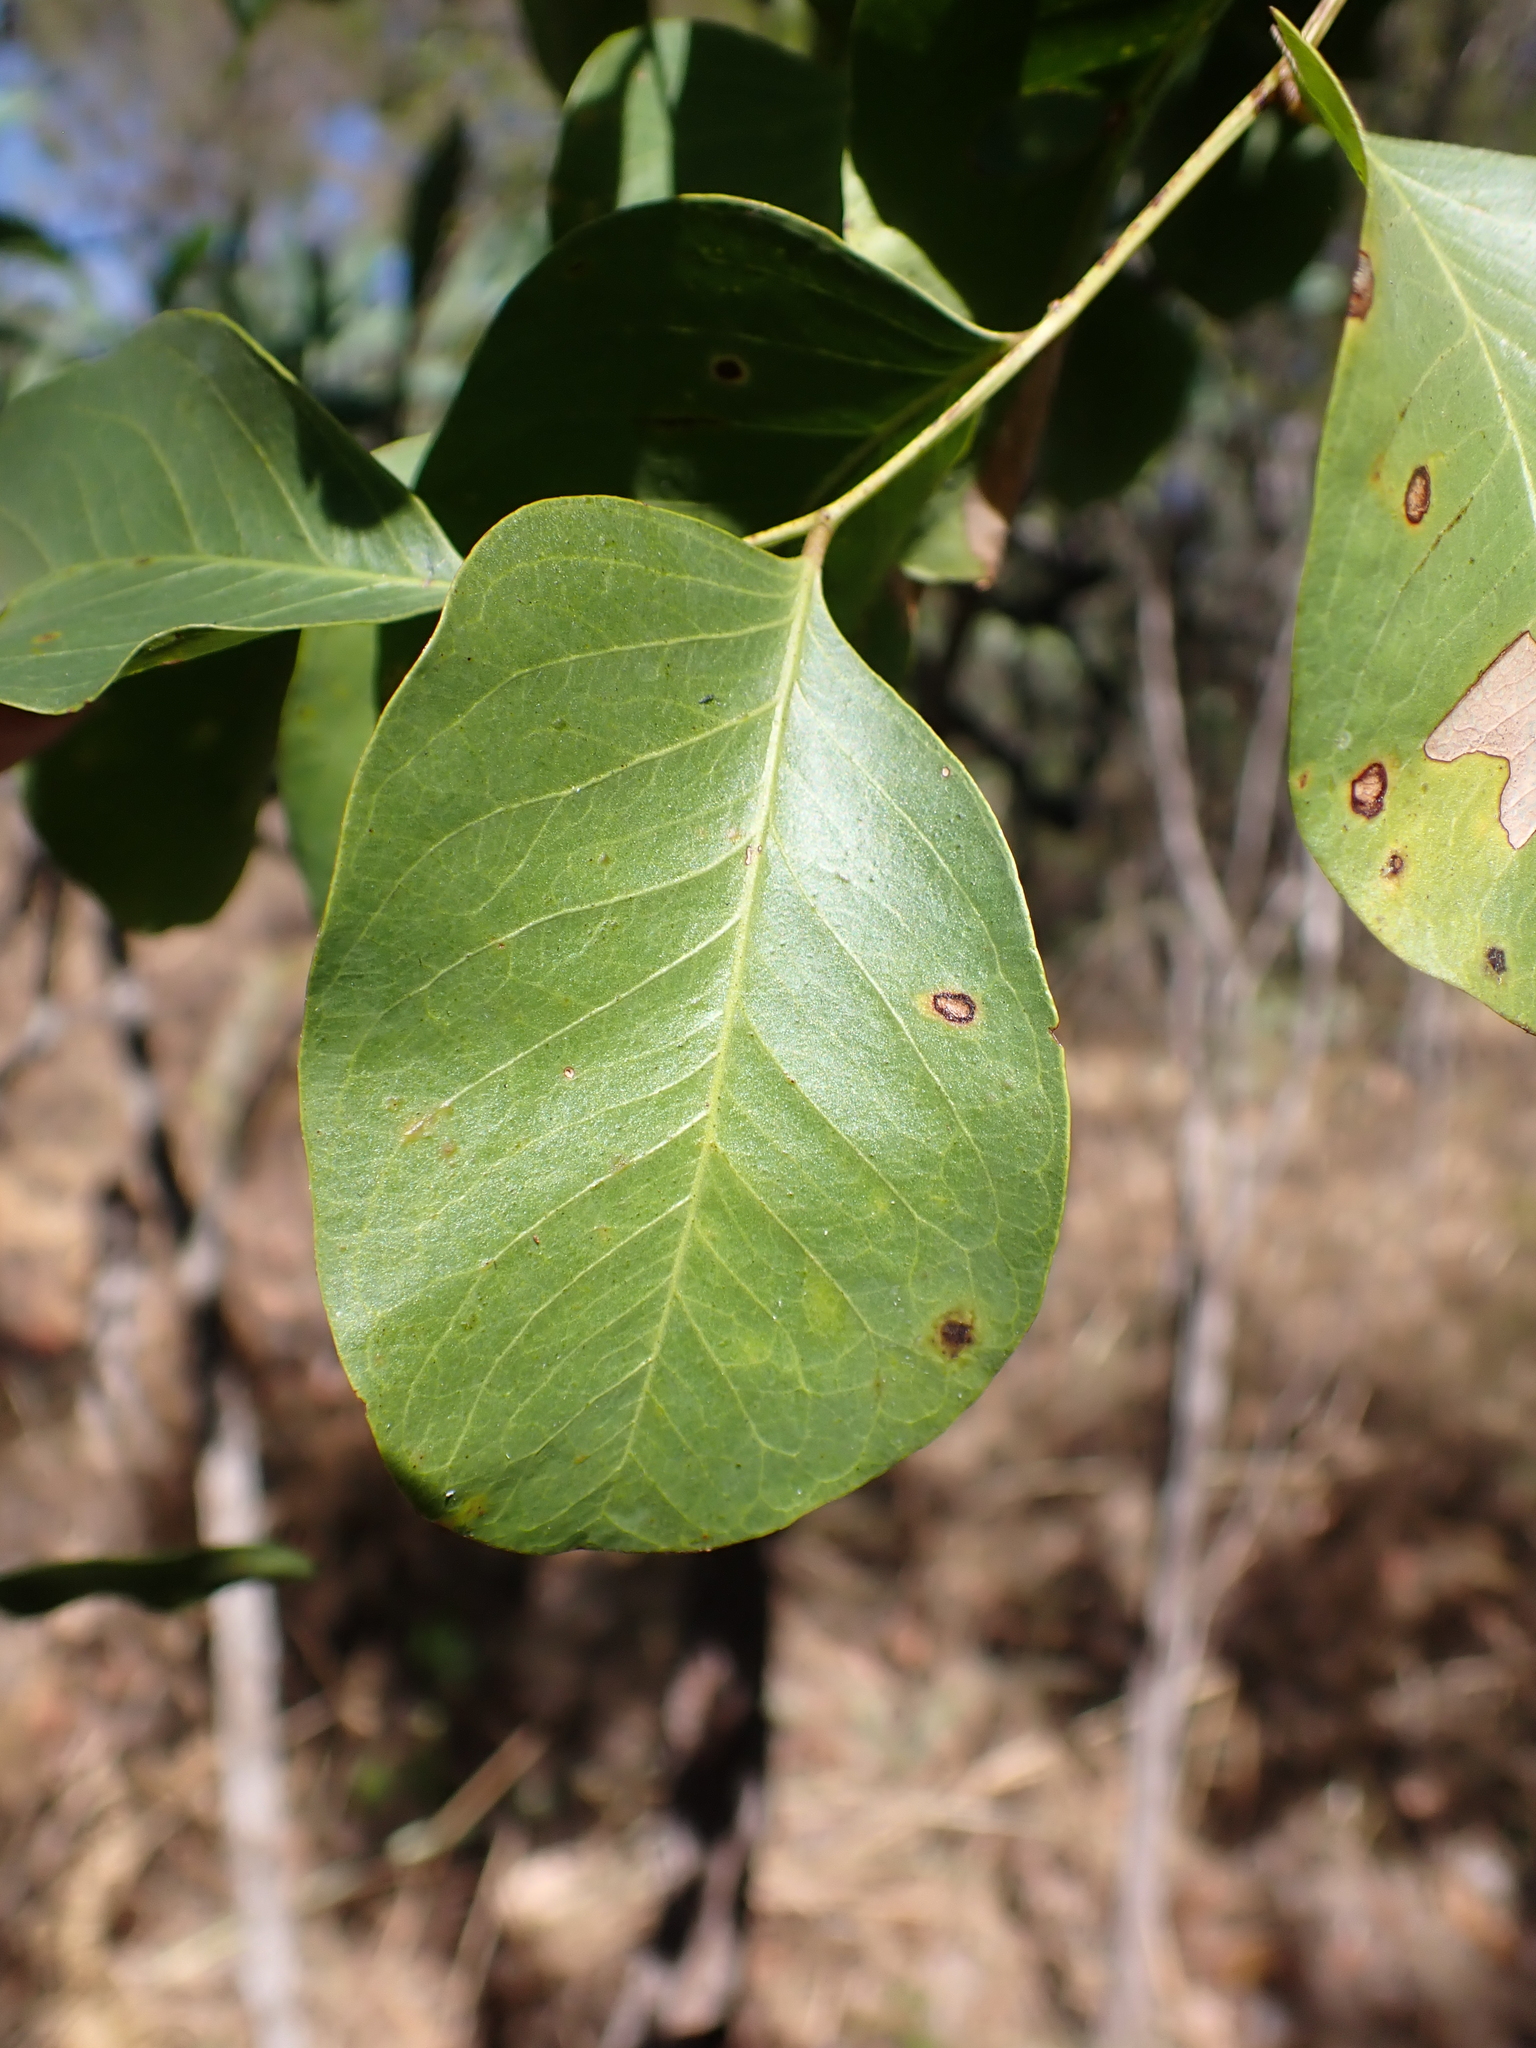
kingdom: Plantae
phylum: Tracheophyta
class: Magnoliopsida
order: Fabales
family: Fabaceae
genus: Erythrophleum
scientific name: Erythrophleum chlorostachys
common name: Black-bean
